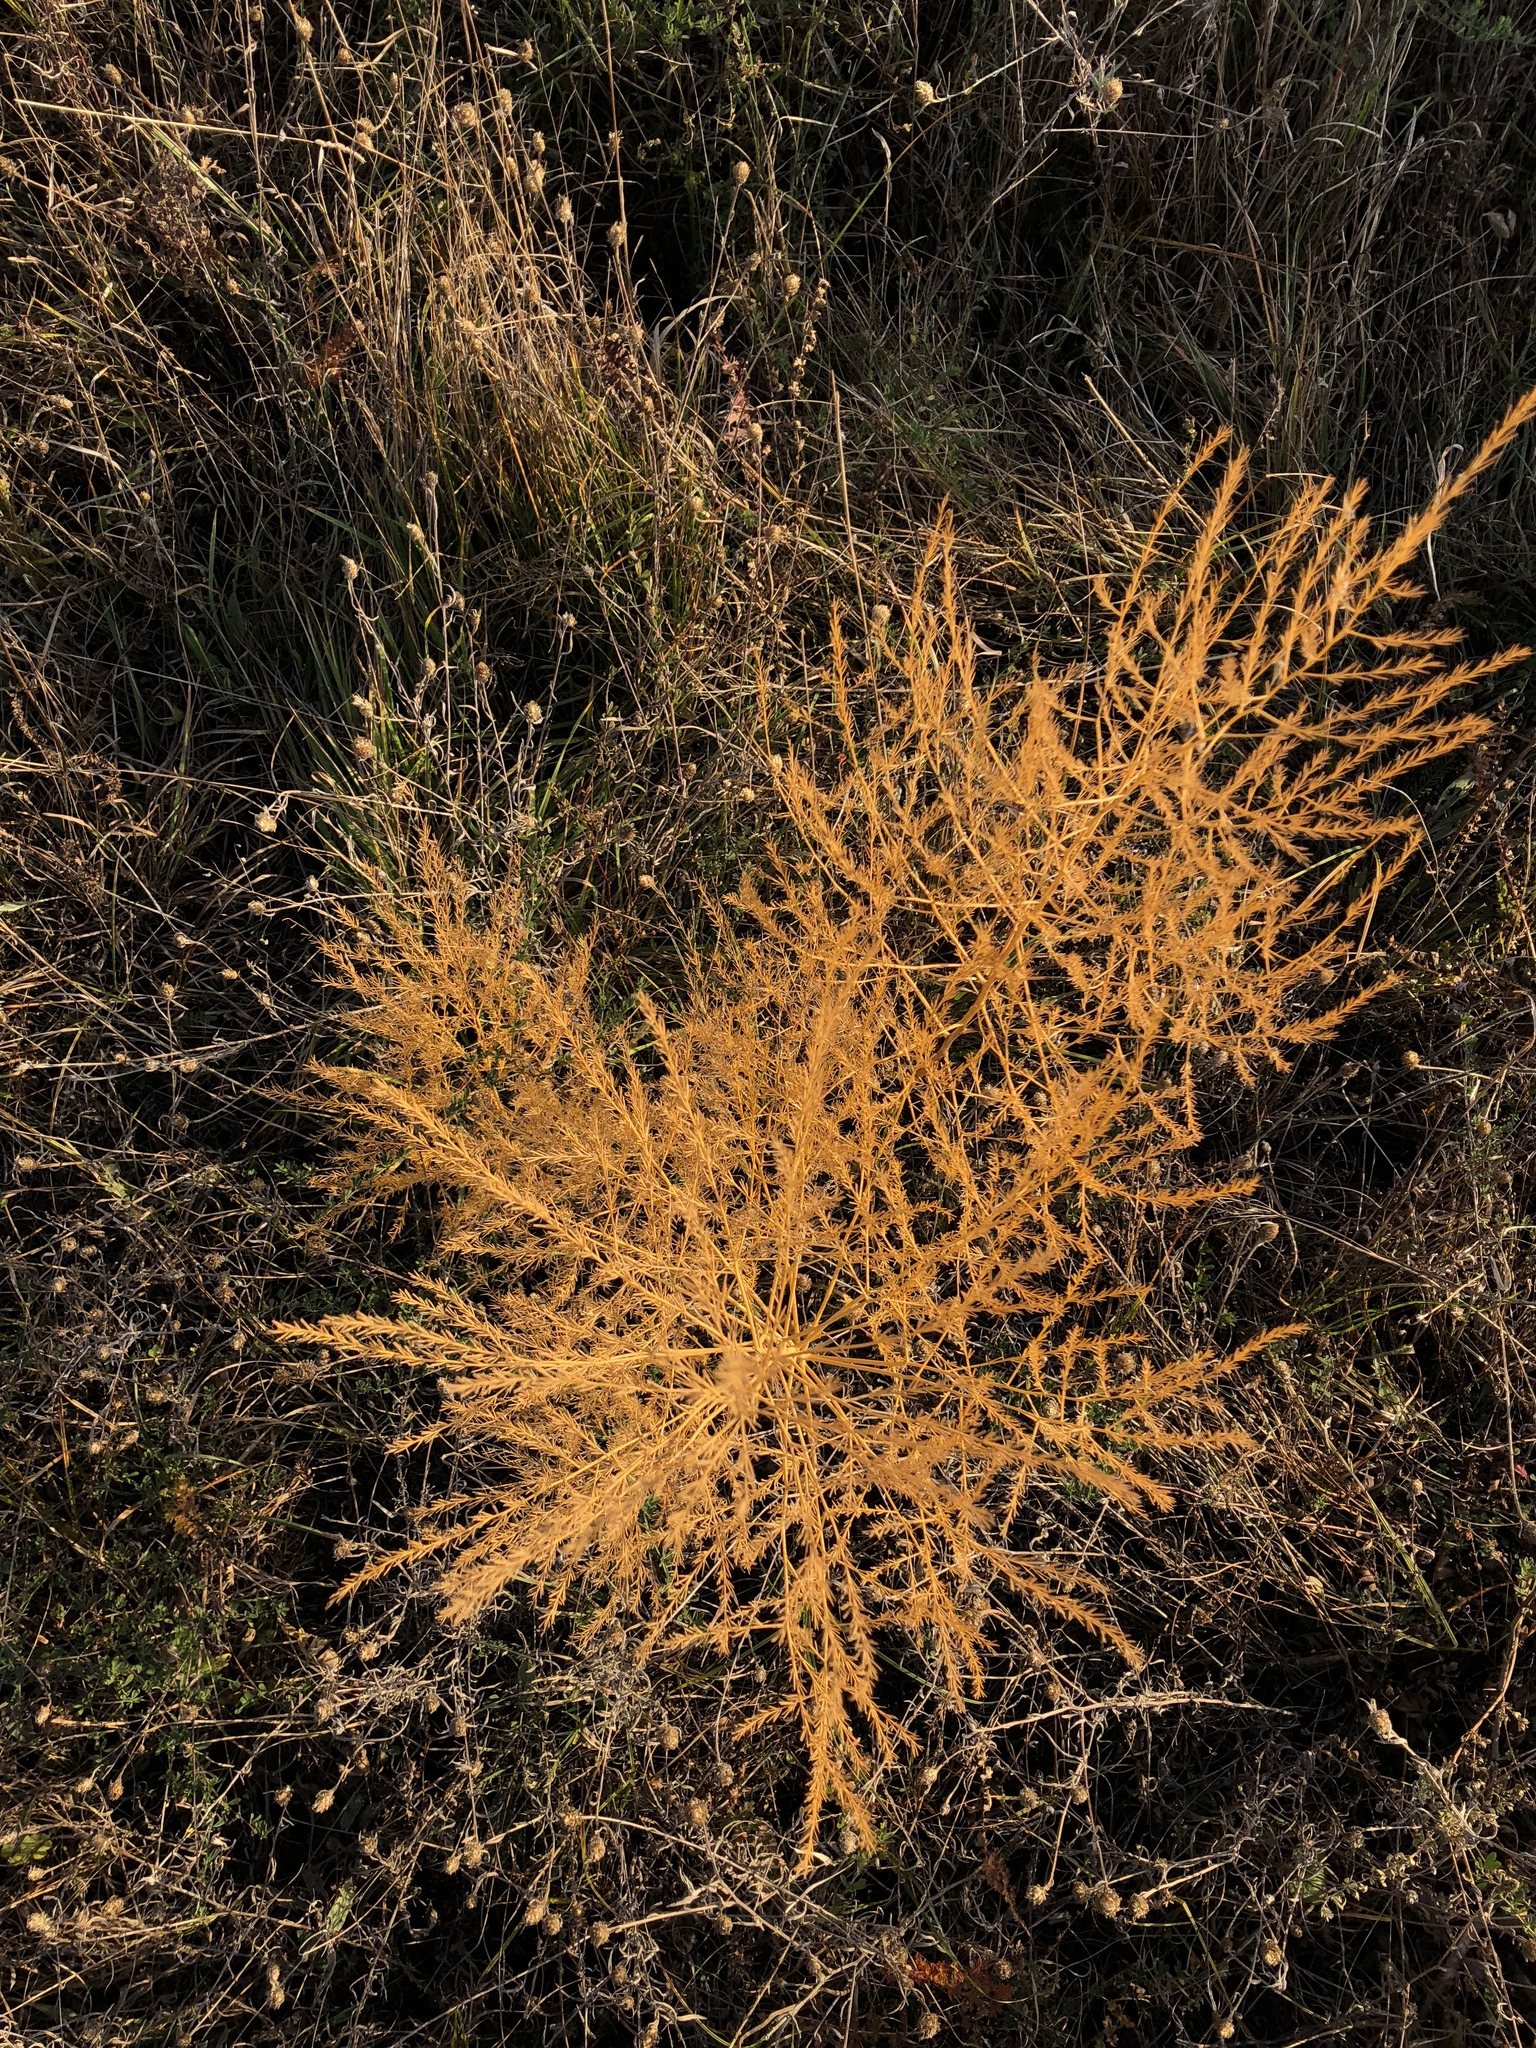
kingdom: Plantae
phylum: Tracheophyta
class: Liliopsida
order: Asparagales
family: Asparagaceae
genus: Asparagus
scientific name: Asparagus officinalis
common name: Garden asparagus
